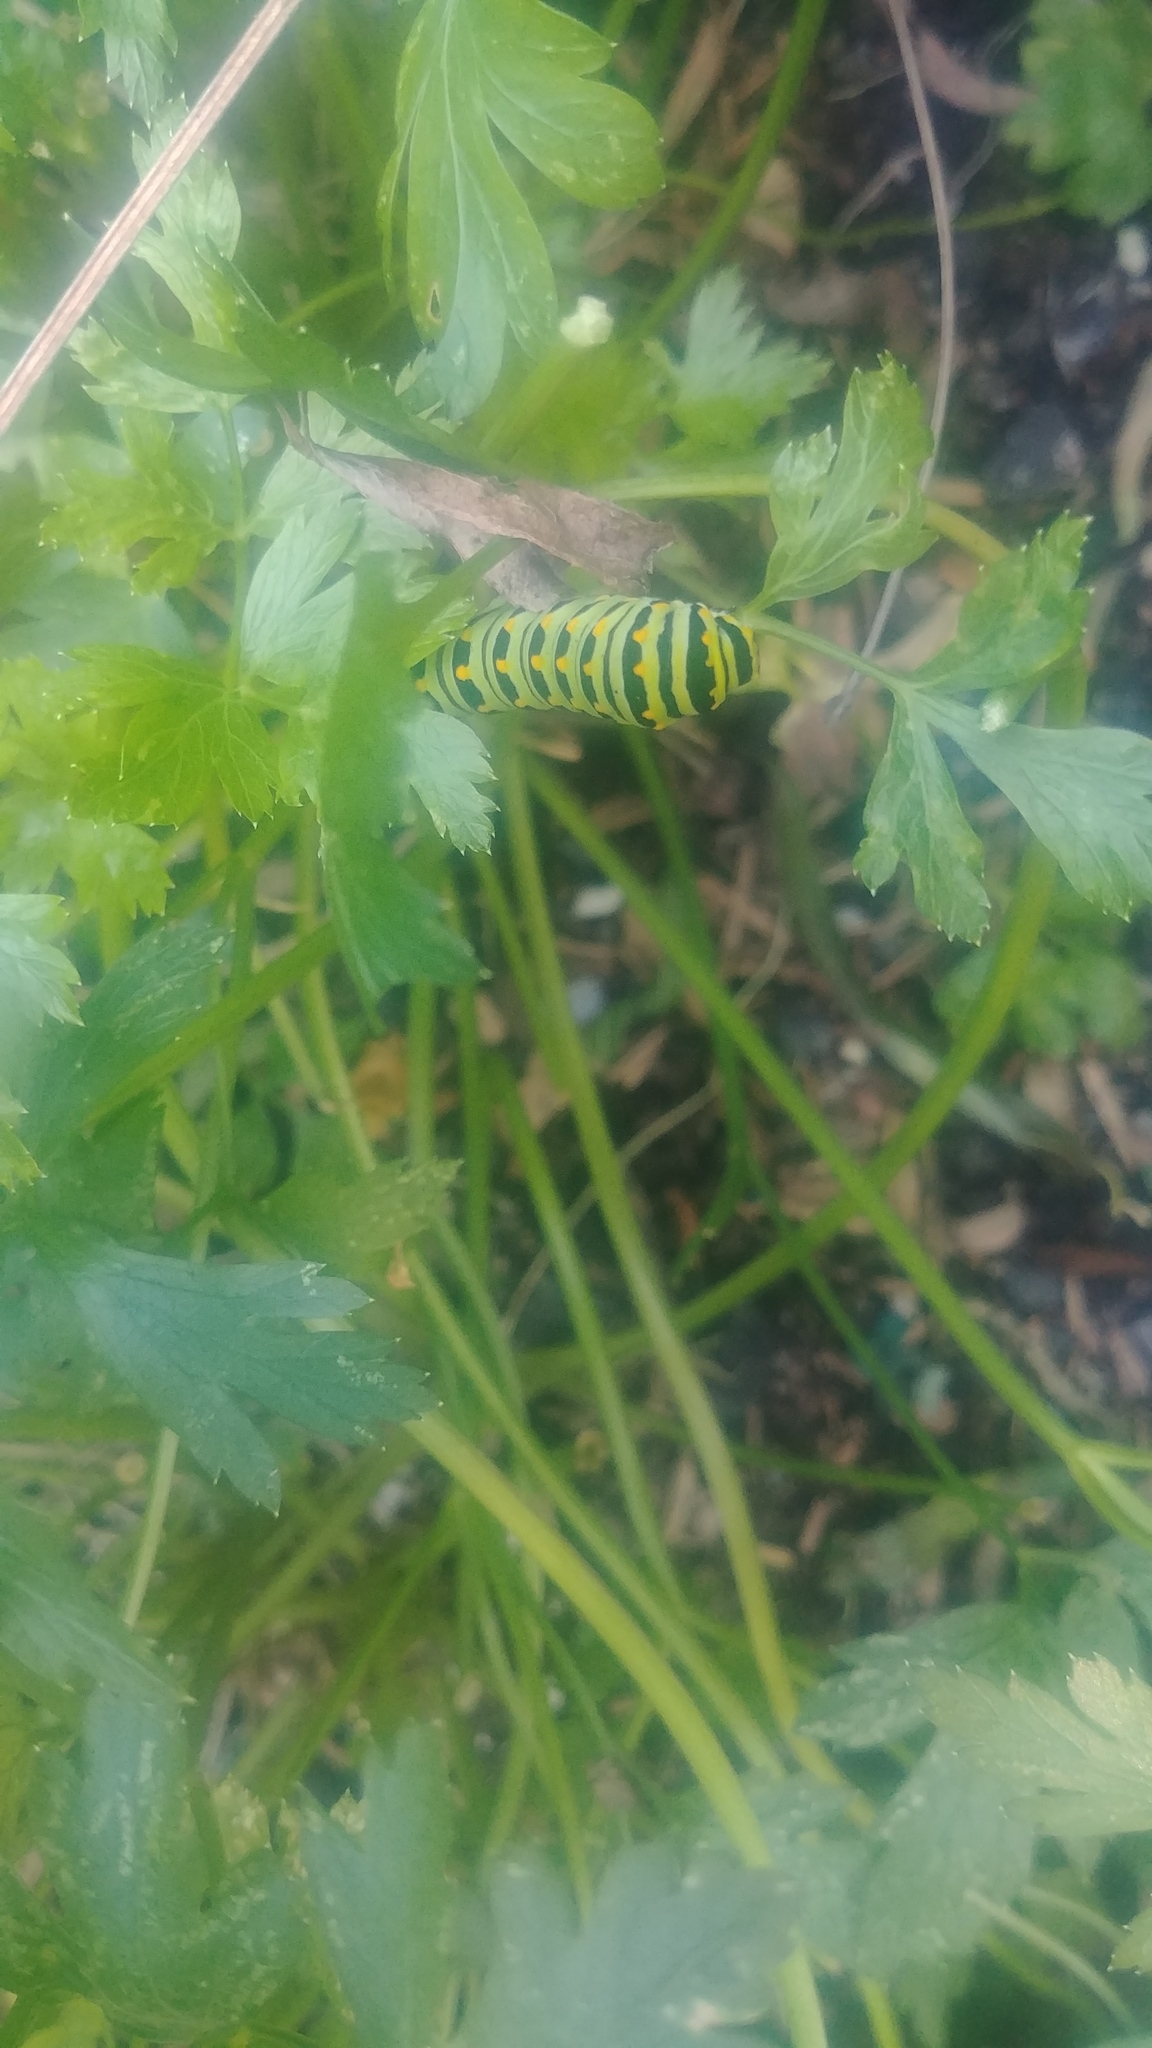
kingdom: Animalia
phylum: Arthropoda
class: Insecta
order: Lepidoptera
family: Papilionidae
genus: Papilio
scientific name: Papilio polyxenes
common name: Black swallowtail
